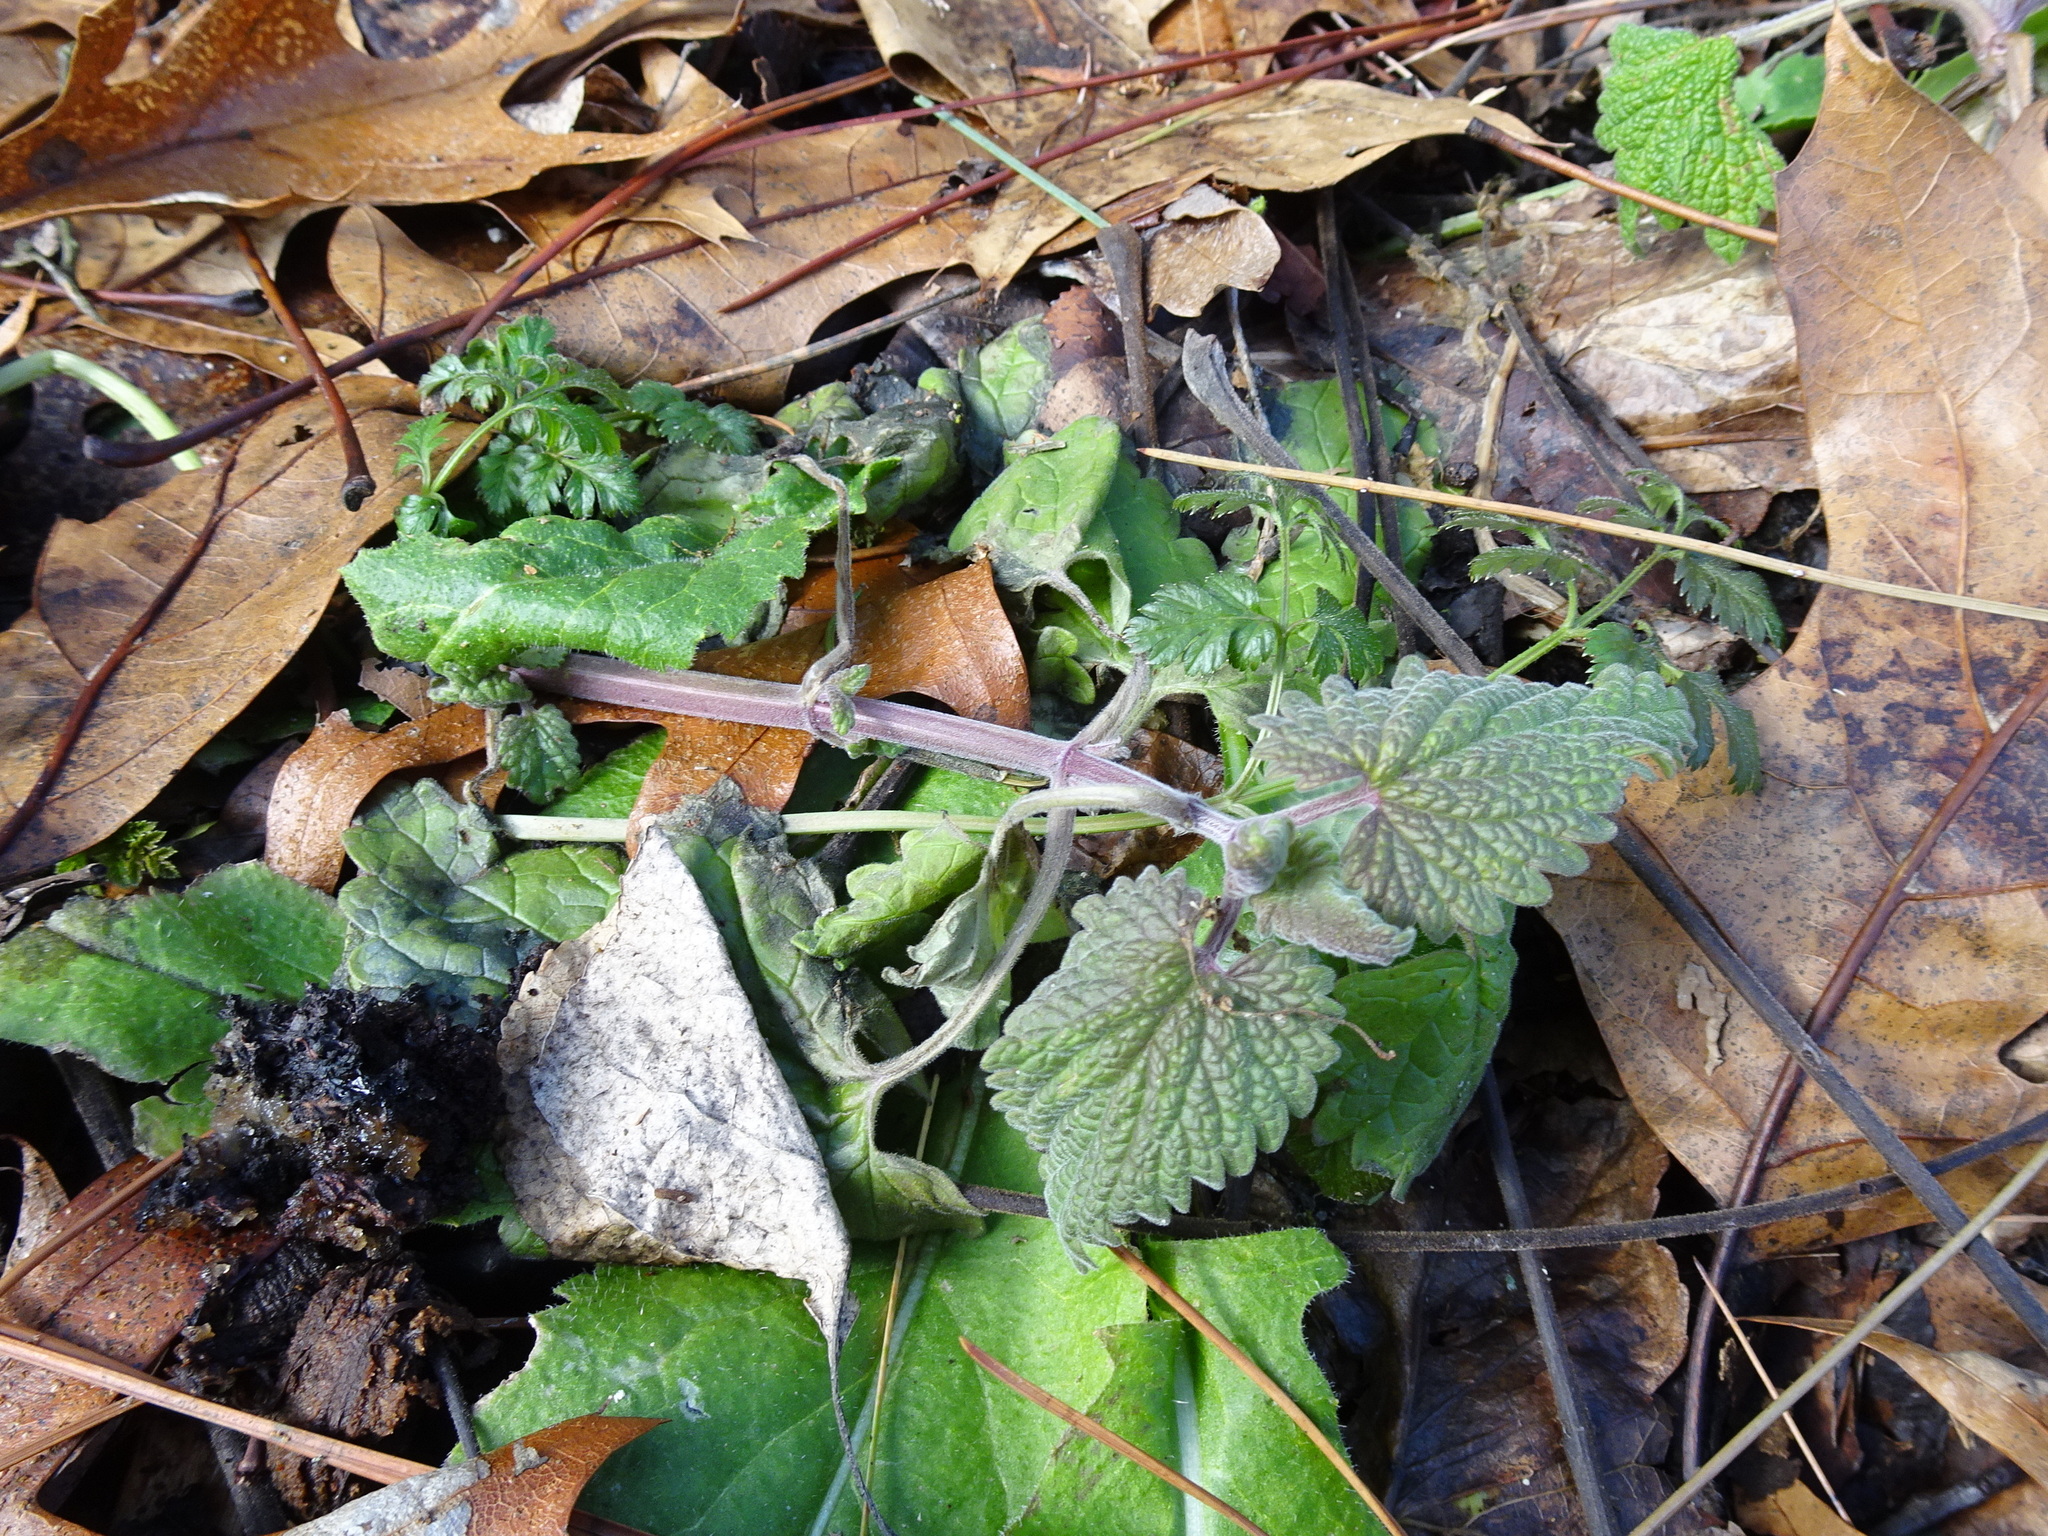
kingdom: Plantae
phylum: Tracheophyta
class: Magnoliopsida
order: Lamiales
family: Lamiaceae
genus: Lamium
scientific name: Lamium purpureum
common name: Red dead-nettle
